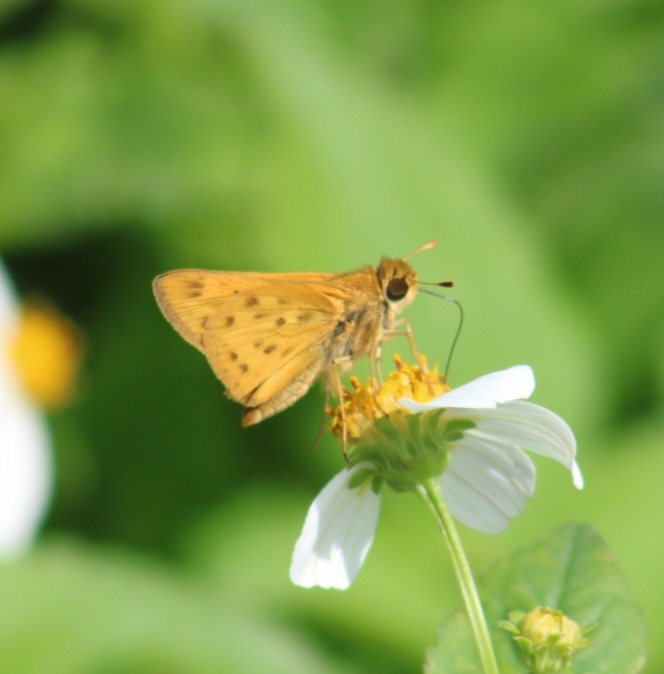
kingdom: Animalia
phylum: Arthropoda
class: Insecta
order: Lepidoptera
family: Hesperiidae
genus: Hylephila
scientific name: Hylephila phyleus
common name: Fiery skipper
